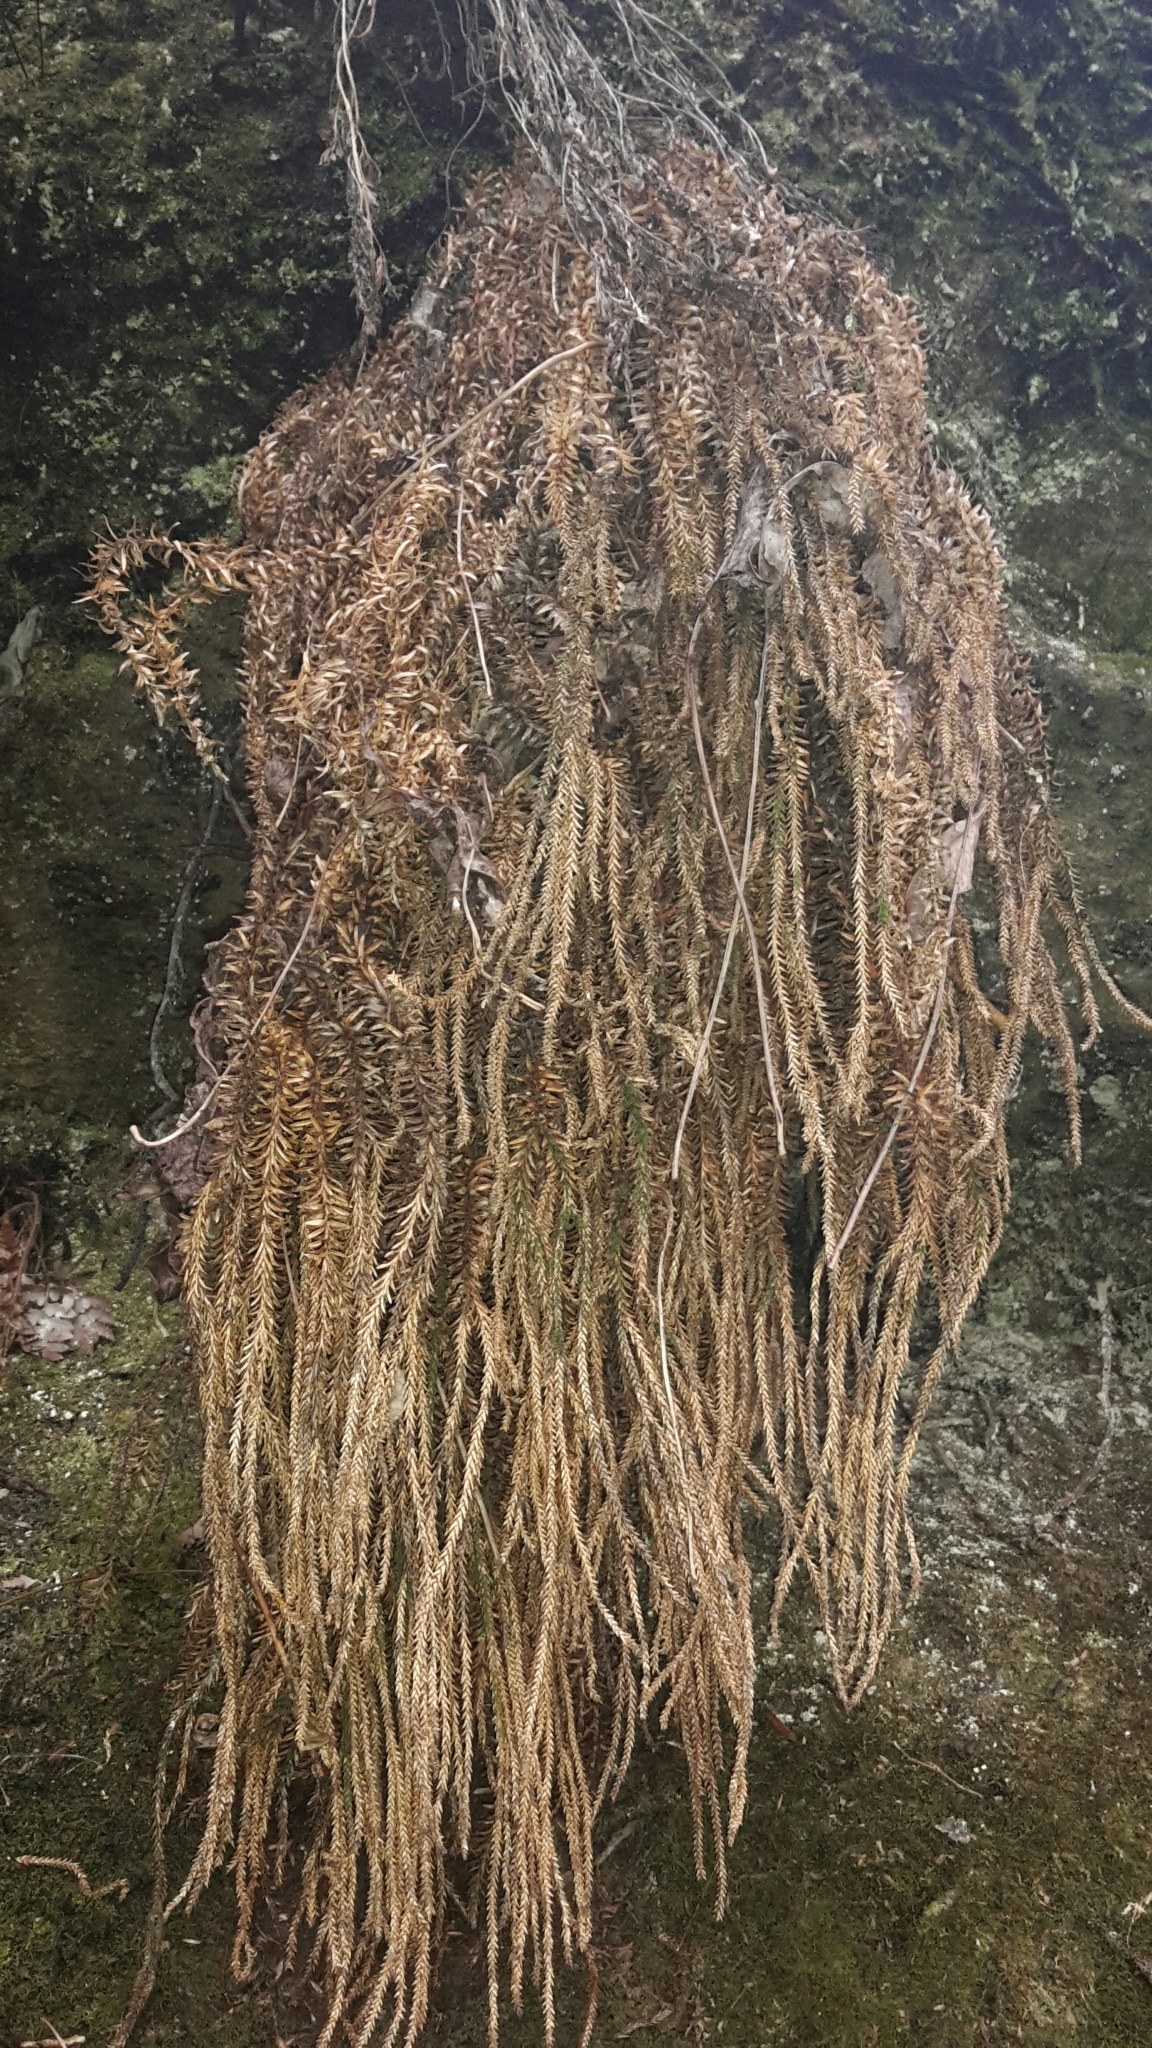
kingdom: Plantae
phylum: Tracheophyta
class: Lycopodiopsida
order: Lycopodiales
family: Lycopodiaceae
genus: Phlegmariurus
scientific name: Phlegmariurus varius
